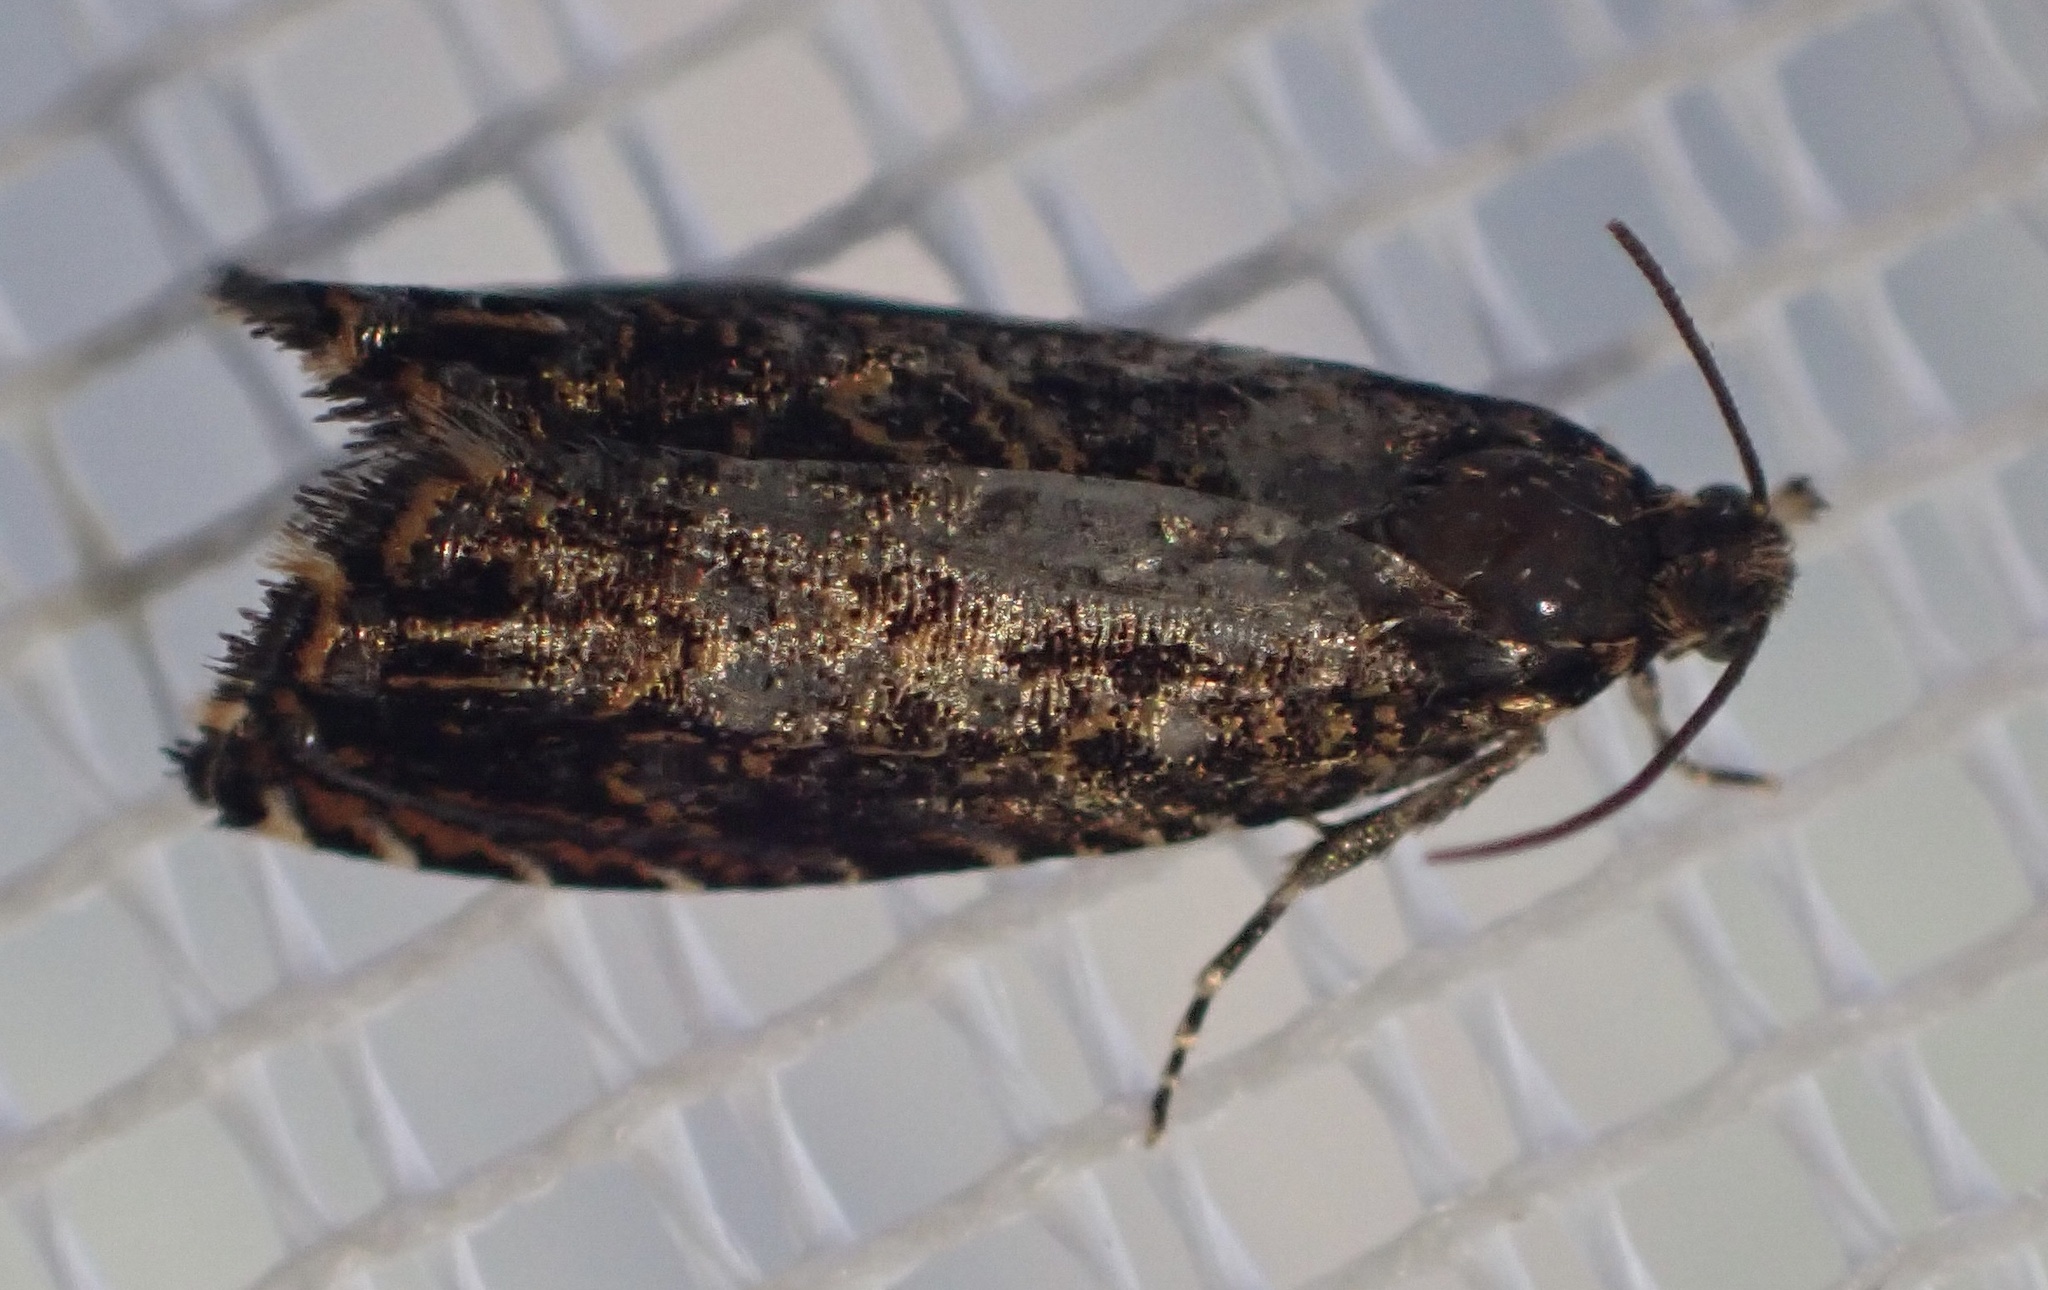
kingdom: Animalia
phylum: Arthropoda
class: Insecta
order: Lepidoptera
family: Tortricidae
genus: Enarmonia
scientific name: Enarmonia formosana
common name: Cherry bark tortrix
